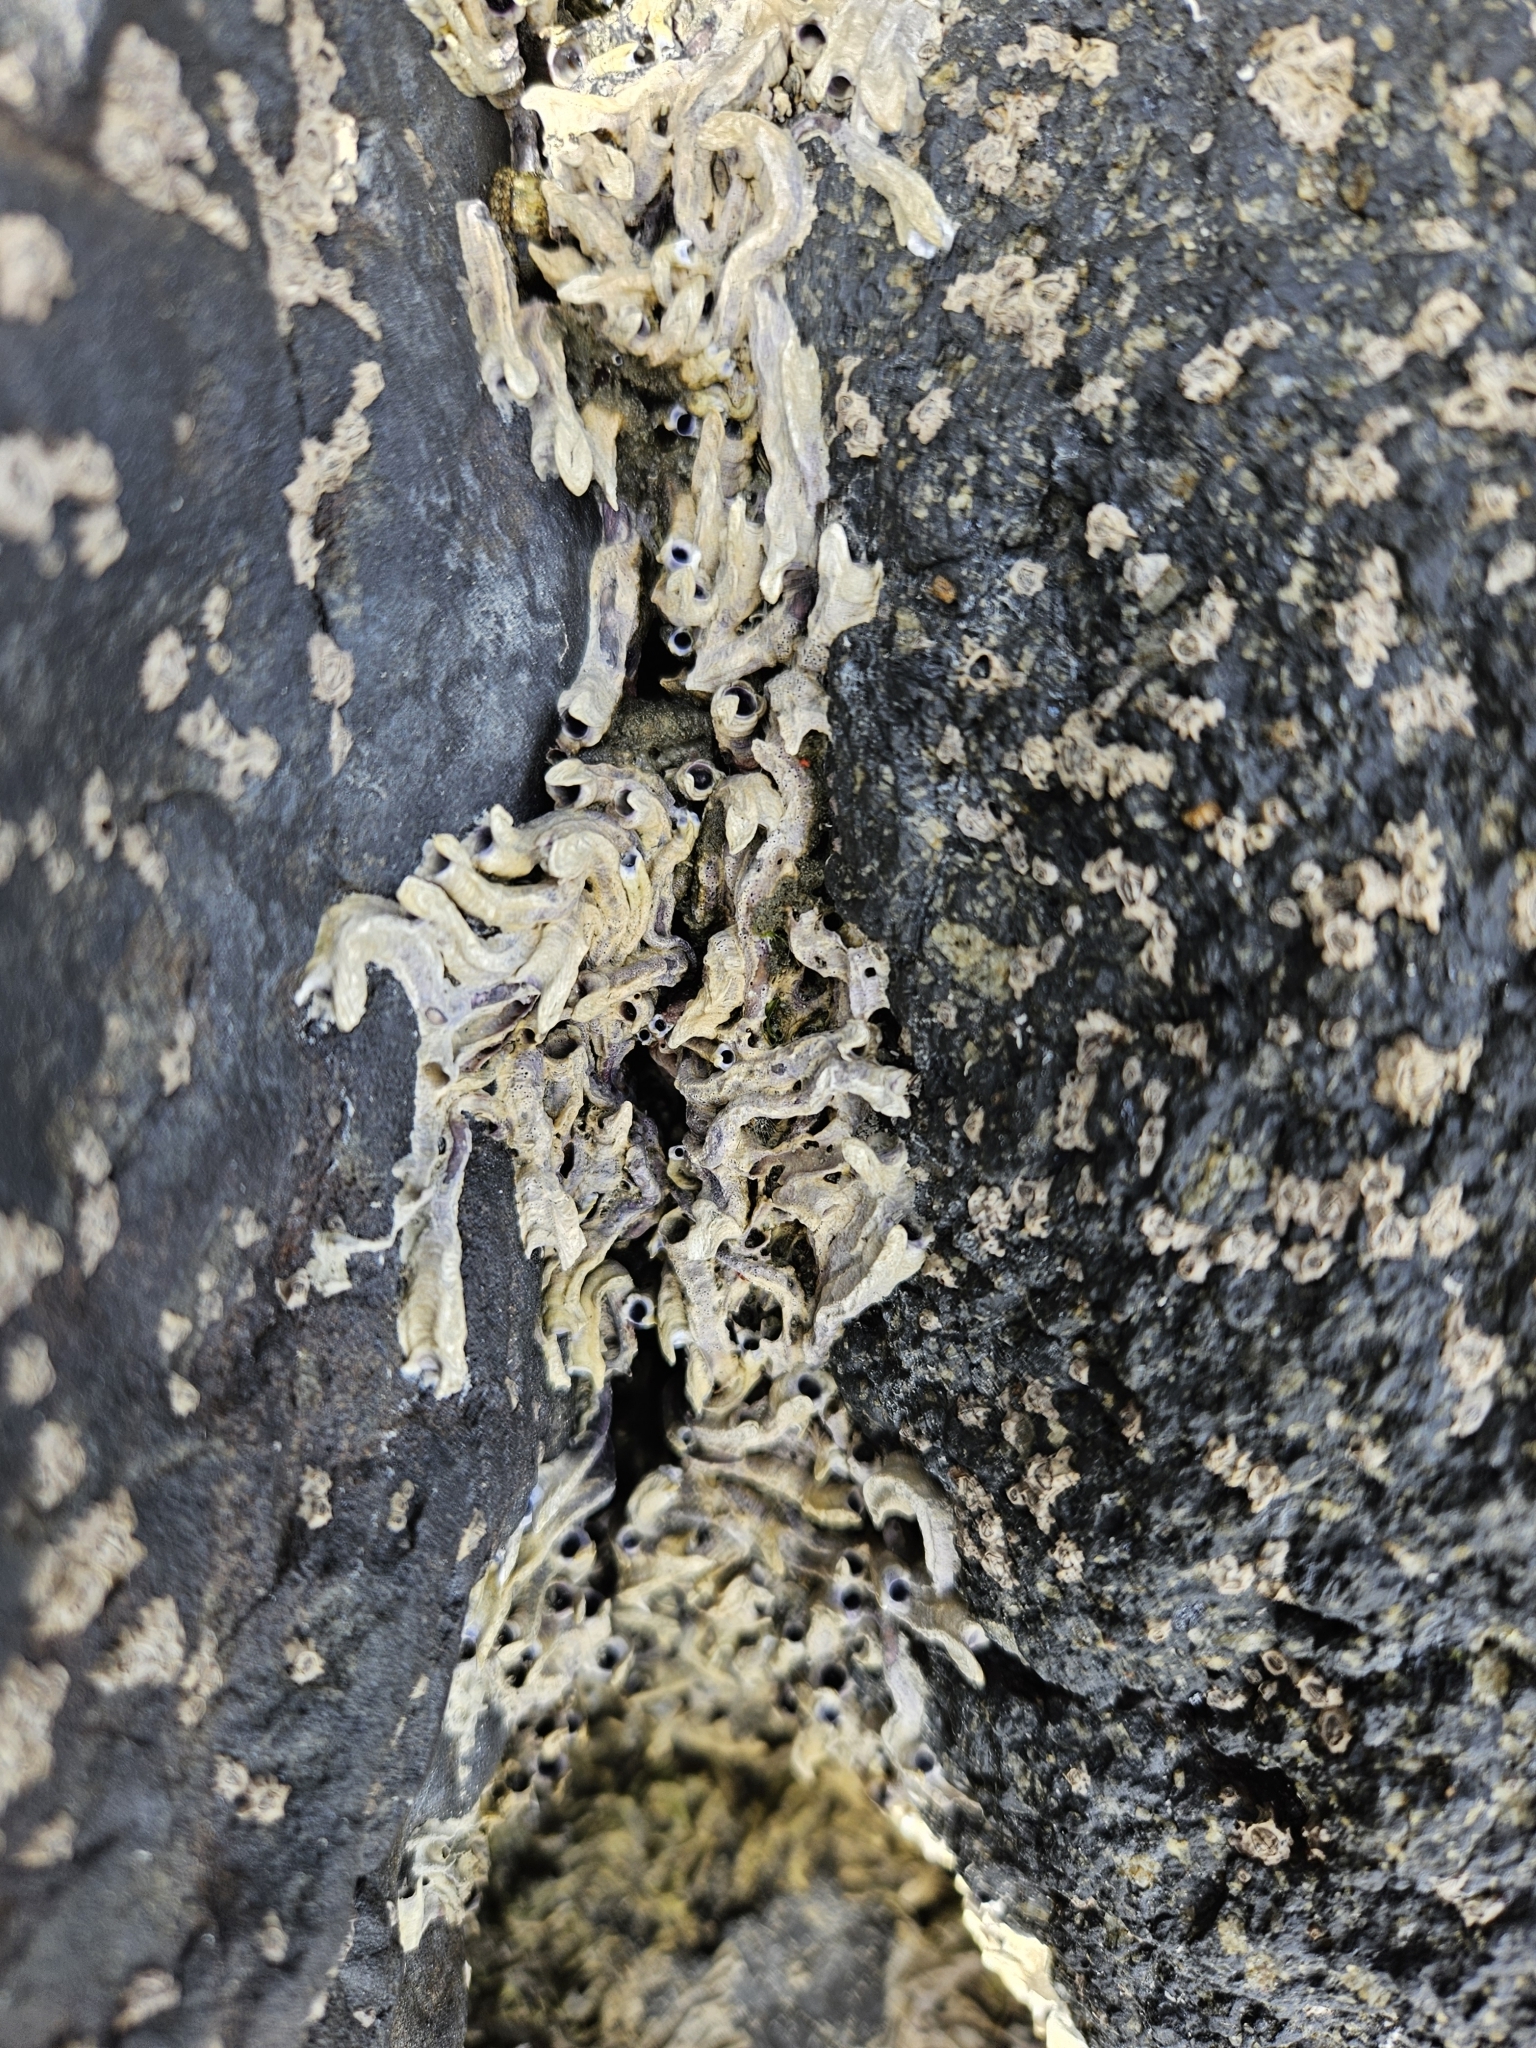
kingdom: Animalia
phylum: Annelida
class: Polychaeta
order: Sabellida
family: Serpulidae
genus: Spirobranchus
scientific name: Spirobranchus cariniferus
